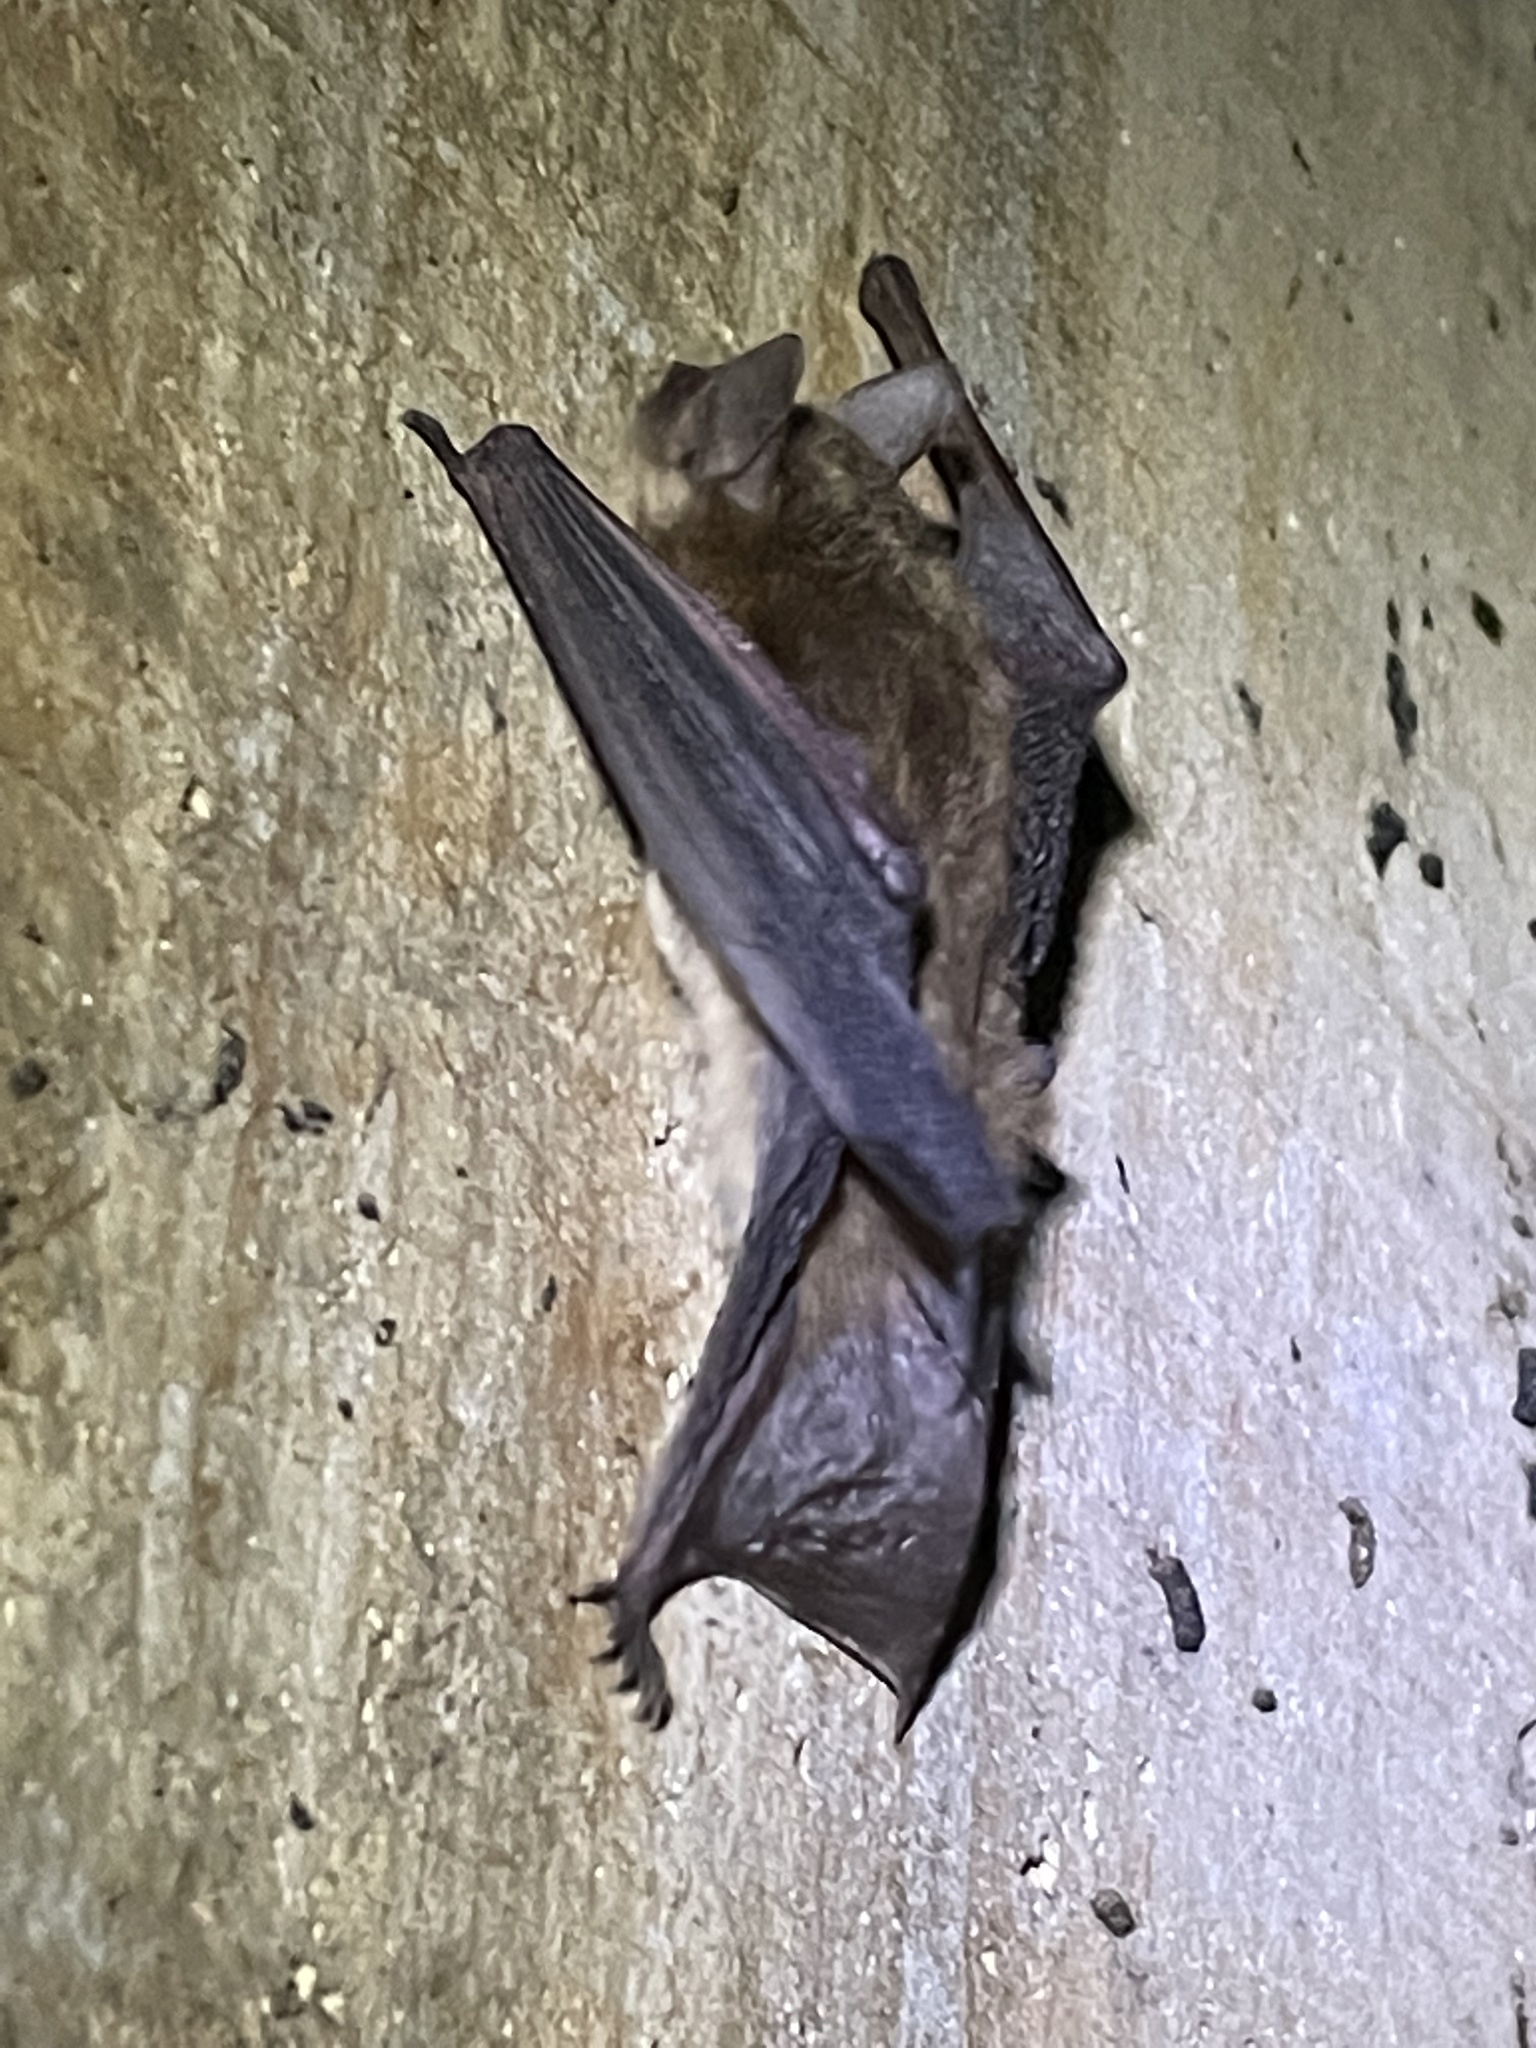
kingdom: Animalia
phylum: Chordata
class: Mammalia
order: Chiroptera
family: Vespertilionidae
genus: Myotis
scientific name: Myotis yumanensis
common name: Yuma myotis
